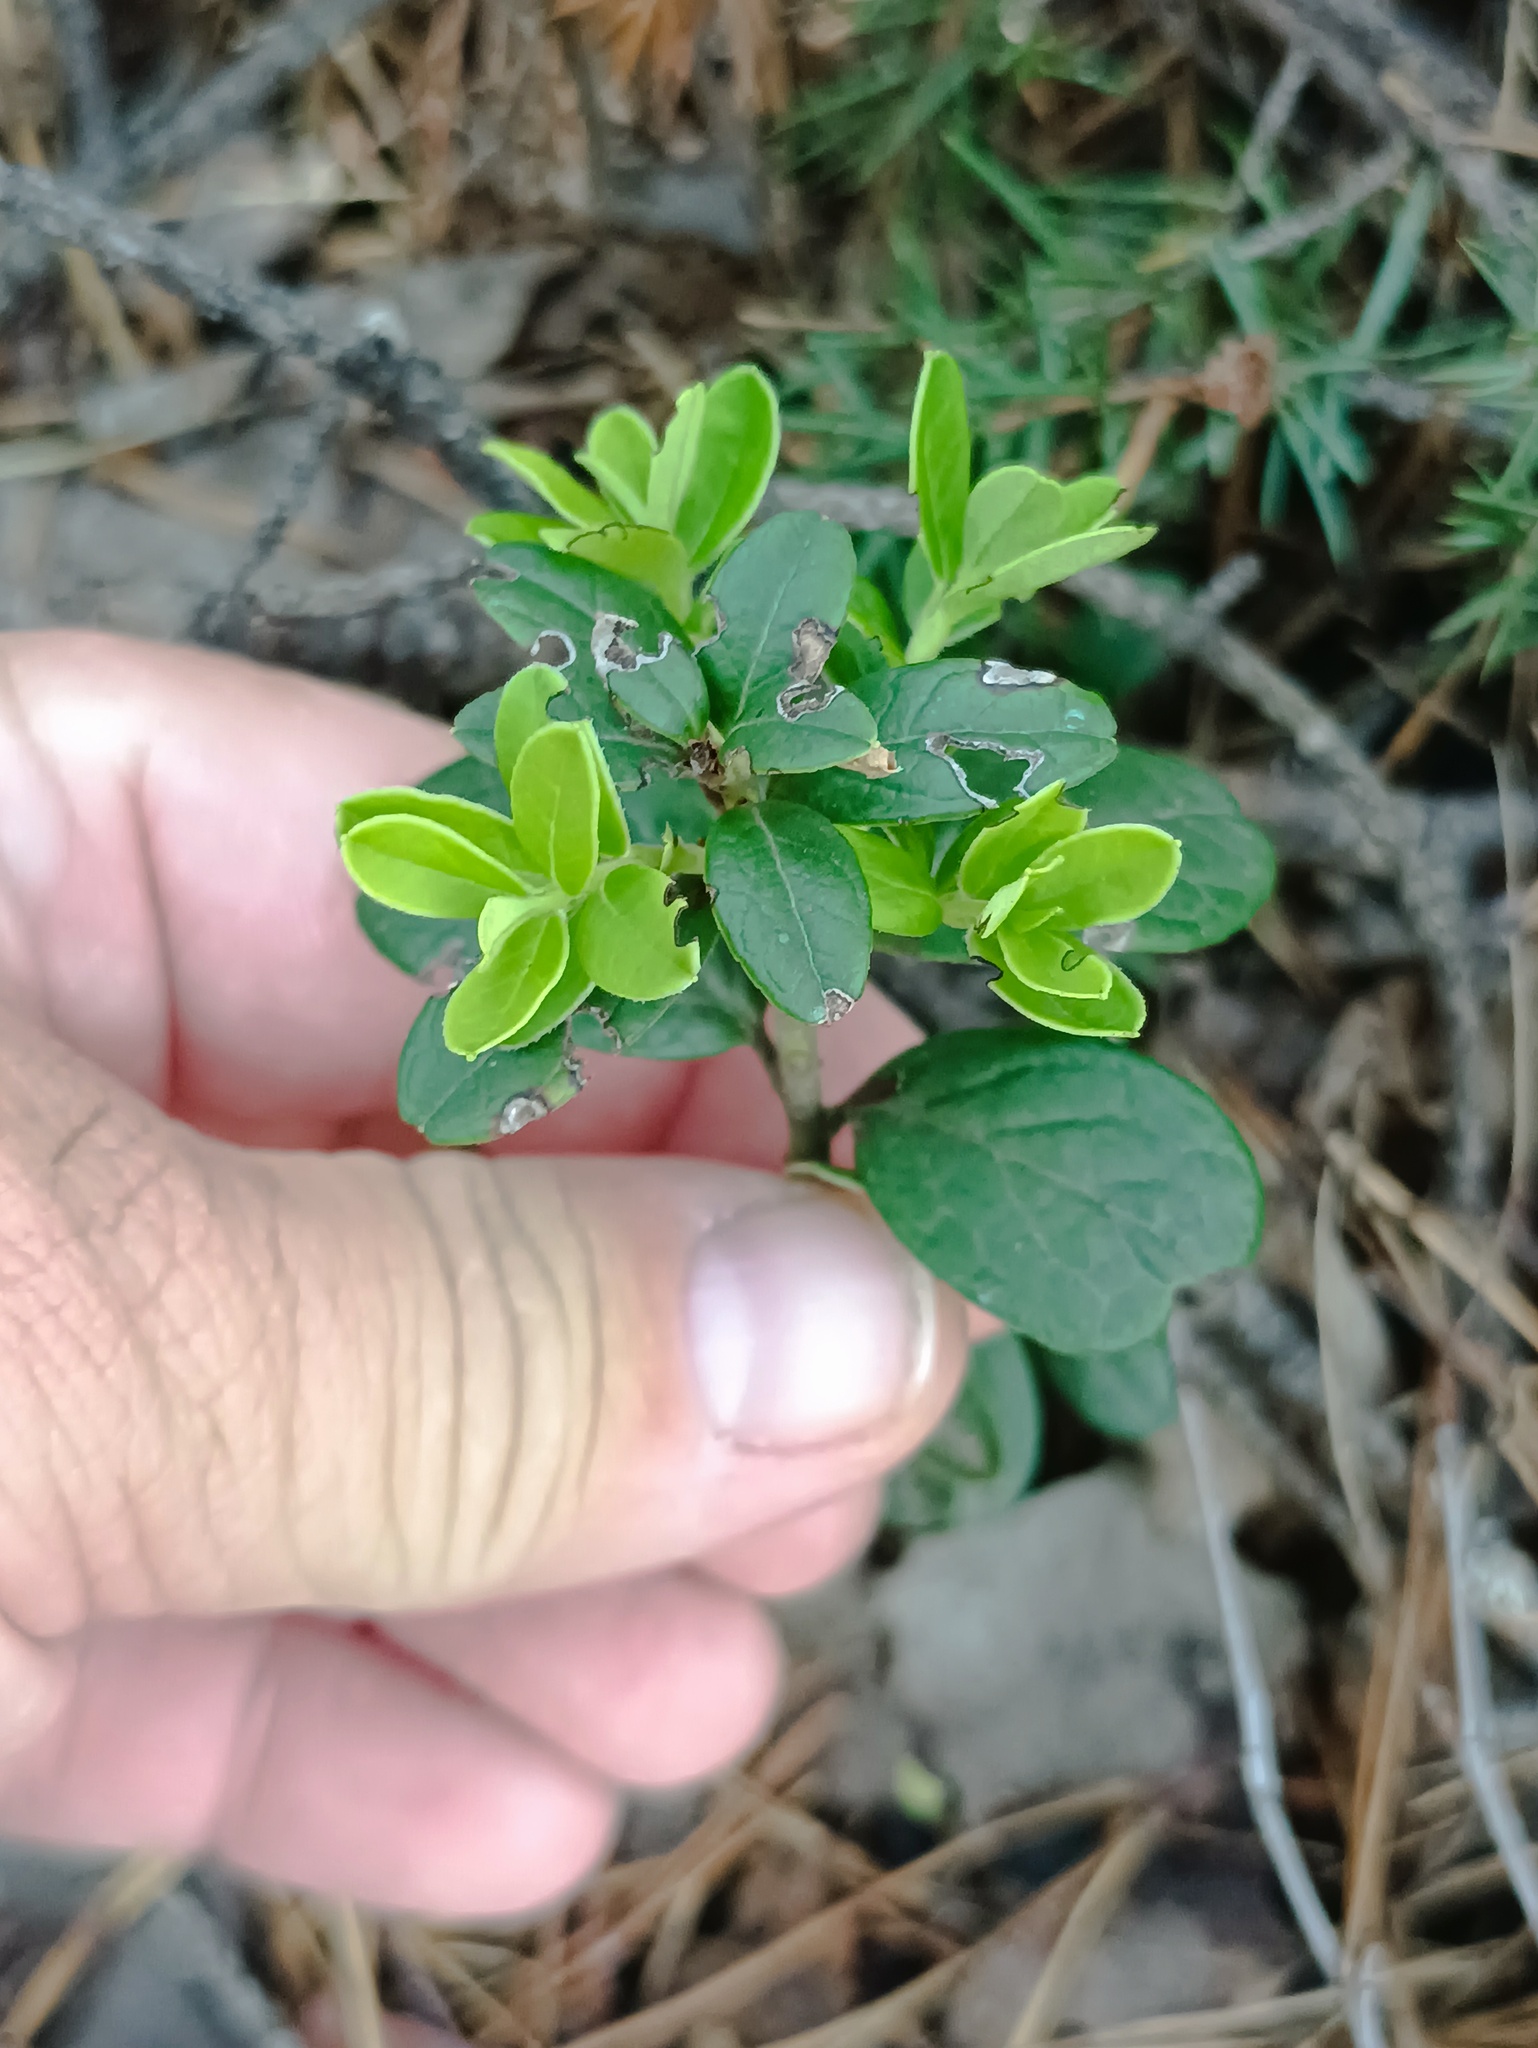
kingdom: Plantae
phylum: Tracheophyta
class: Magnoliopsida
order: Ericales
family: Ericaceae
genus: Vaccinium
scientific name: Vaccinium vitis-idaea
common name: Cowberry
